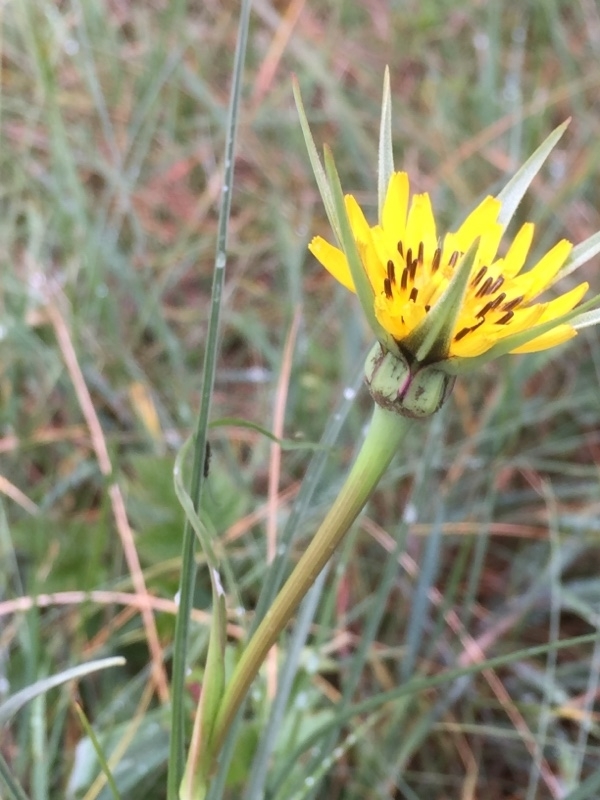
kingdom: Plantae
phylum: Tracheophyta
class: Magnoliopsida
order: Asterales
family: Asteraceae
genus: Tragopogon
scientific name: Tragopogon pratensis
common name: Goat's-beard
